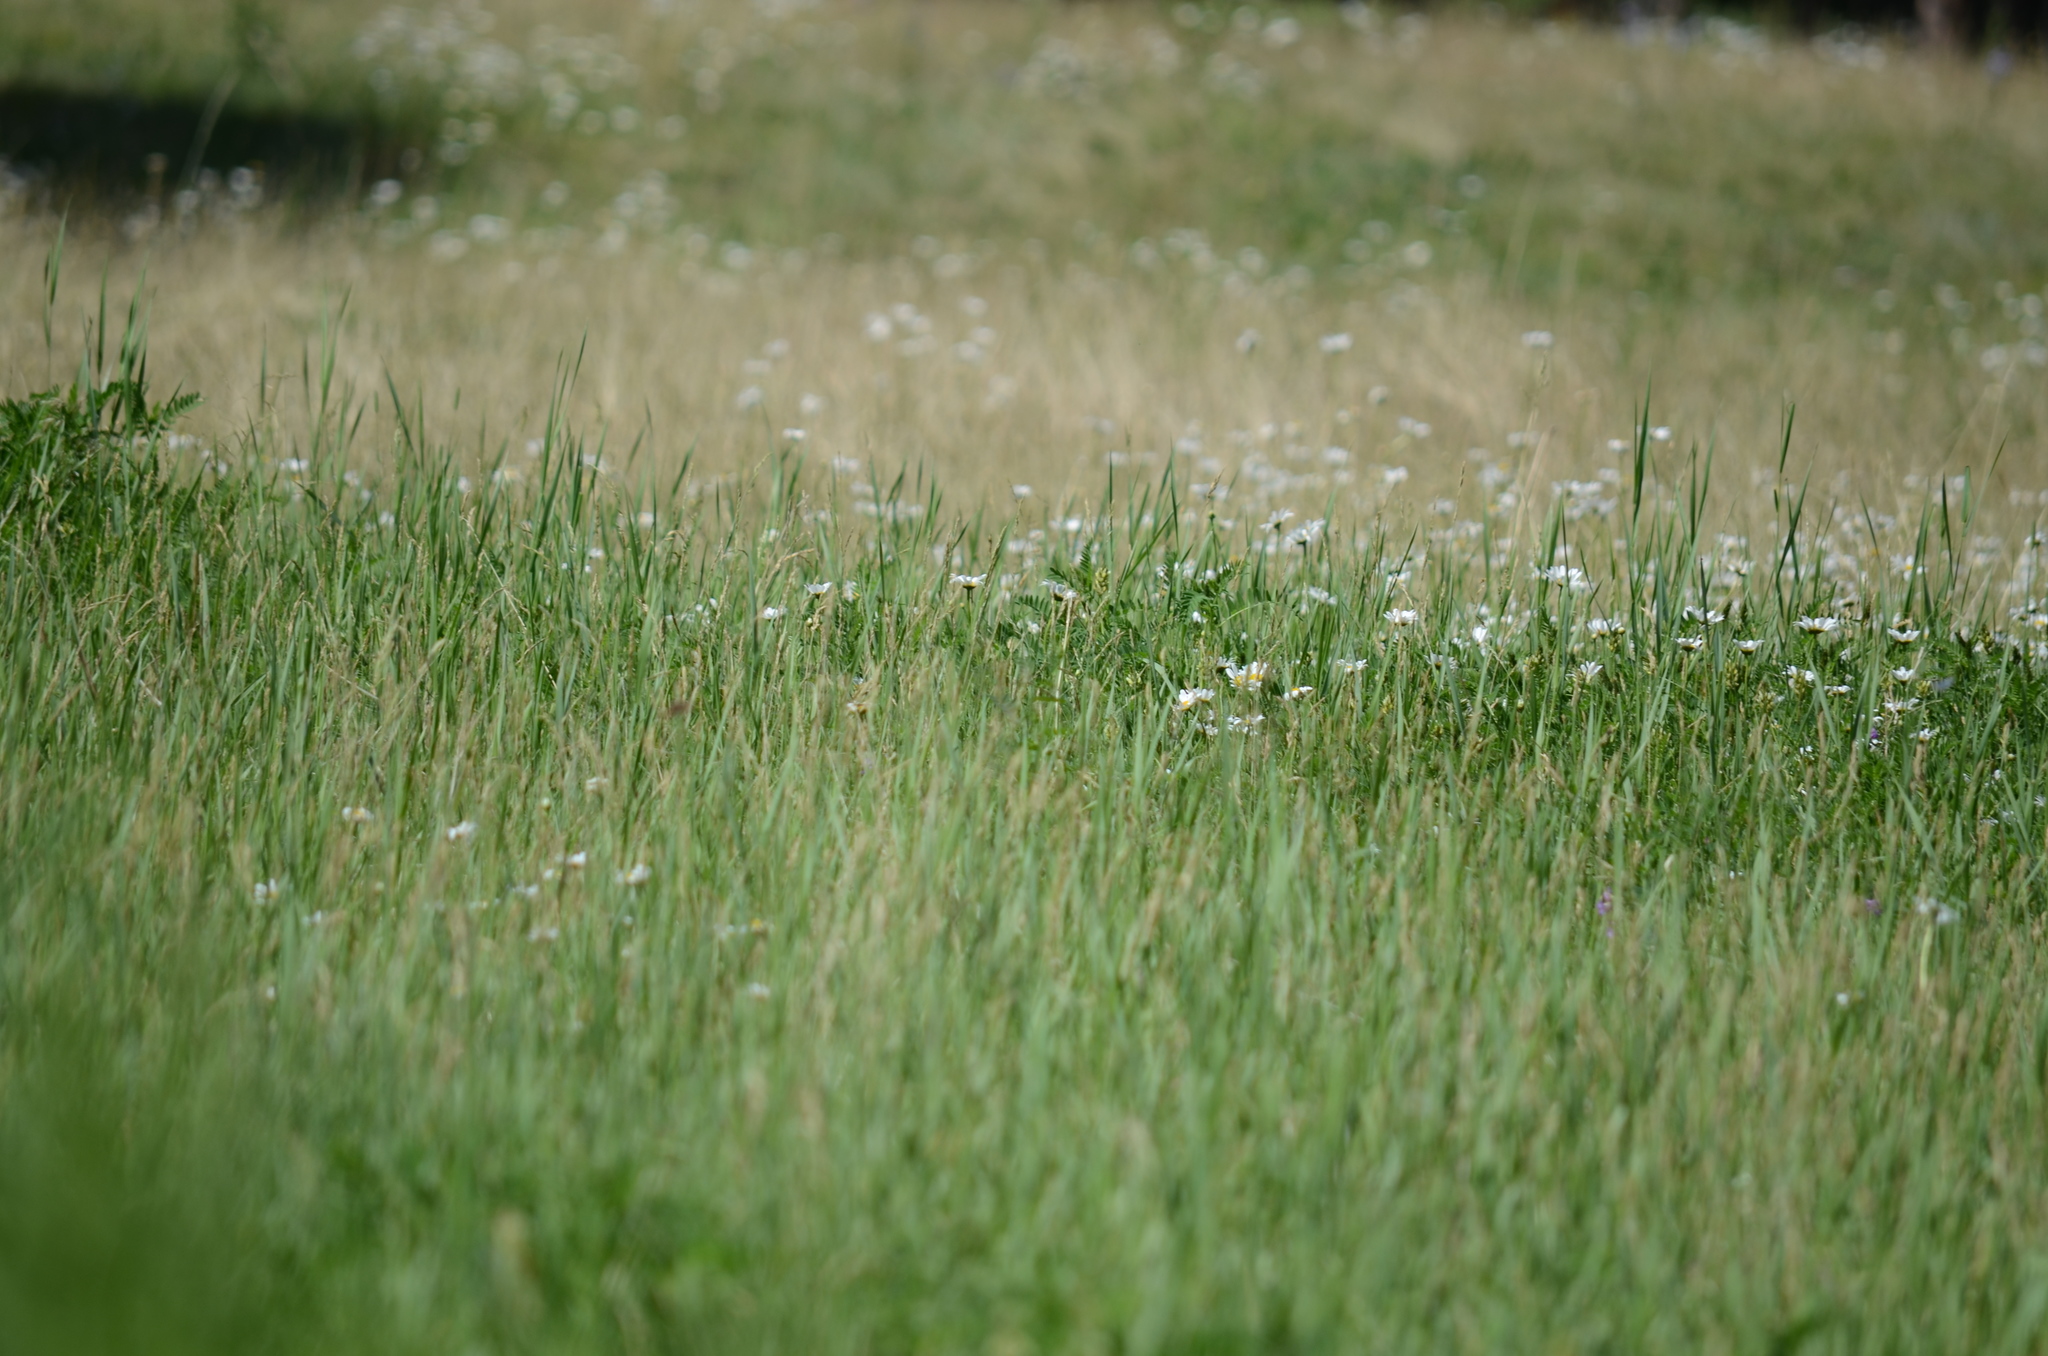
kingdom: Plantae
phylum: Tracheophyta
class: Magnoliopsida
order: Asterales
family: Asteraceae
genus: Leucanthemum
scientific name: Leucanthemum vulgare
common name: Oxeye daisy
